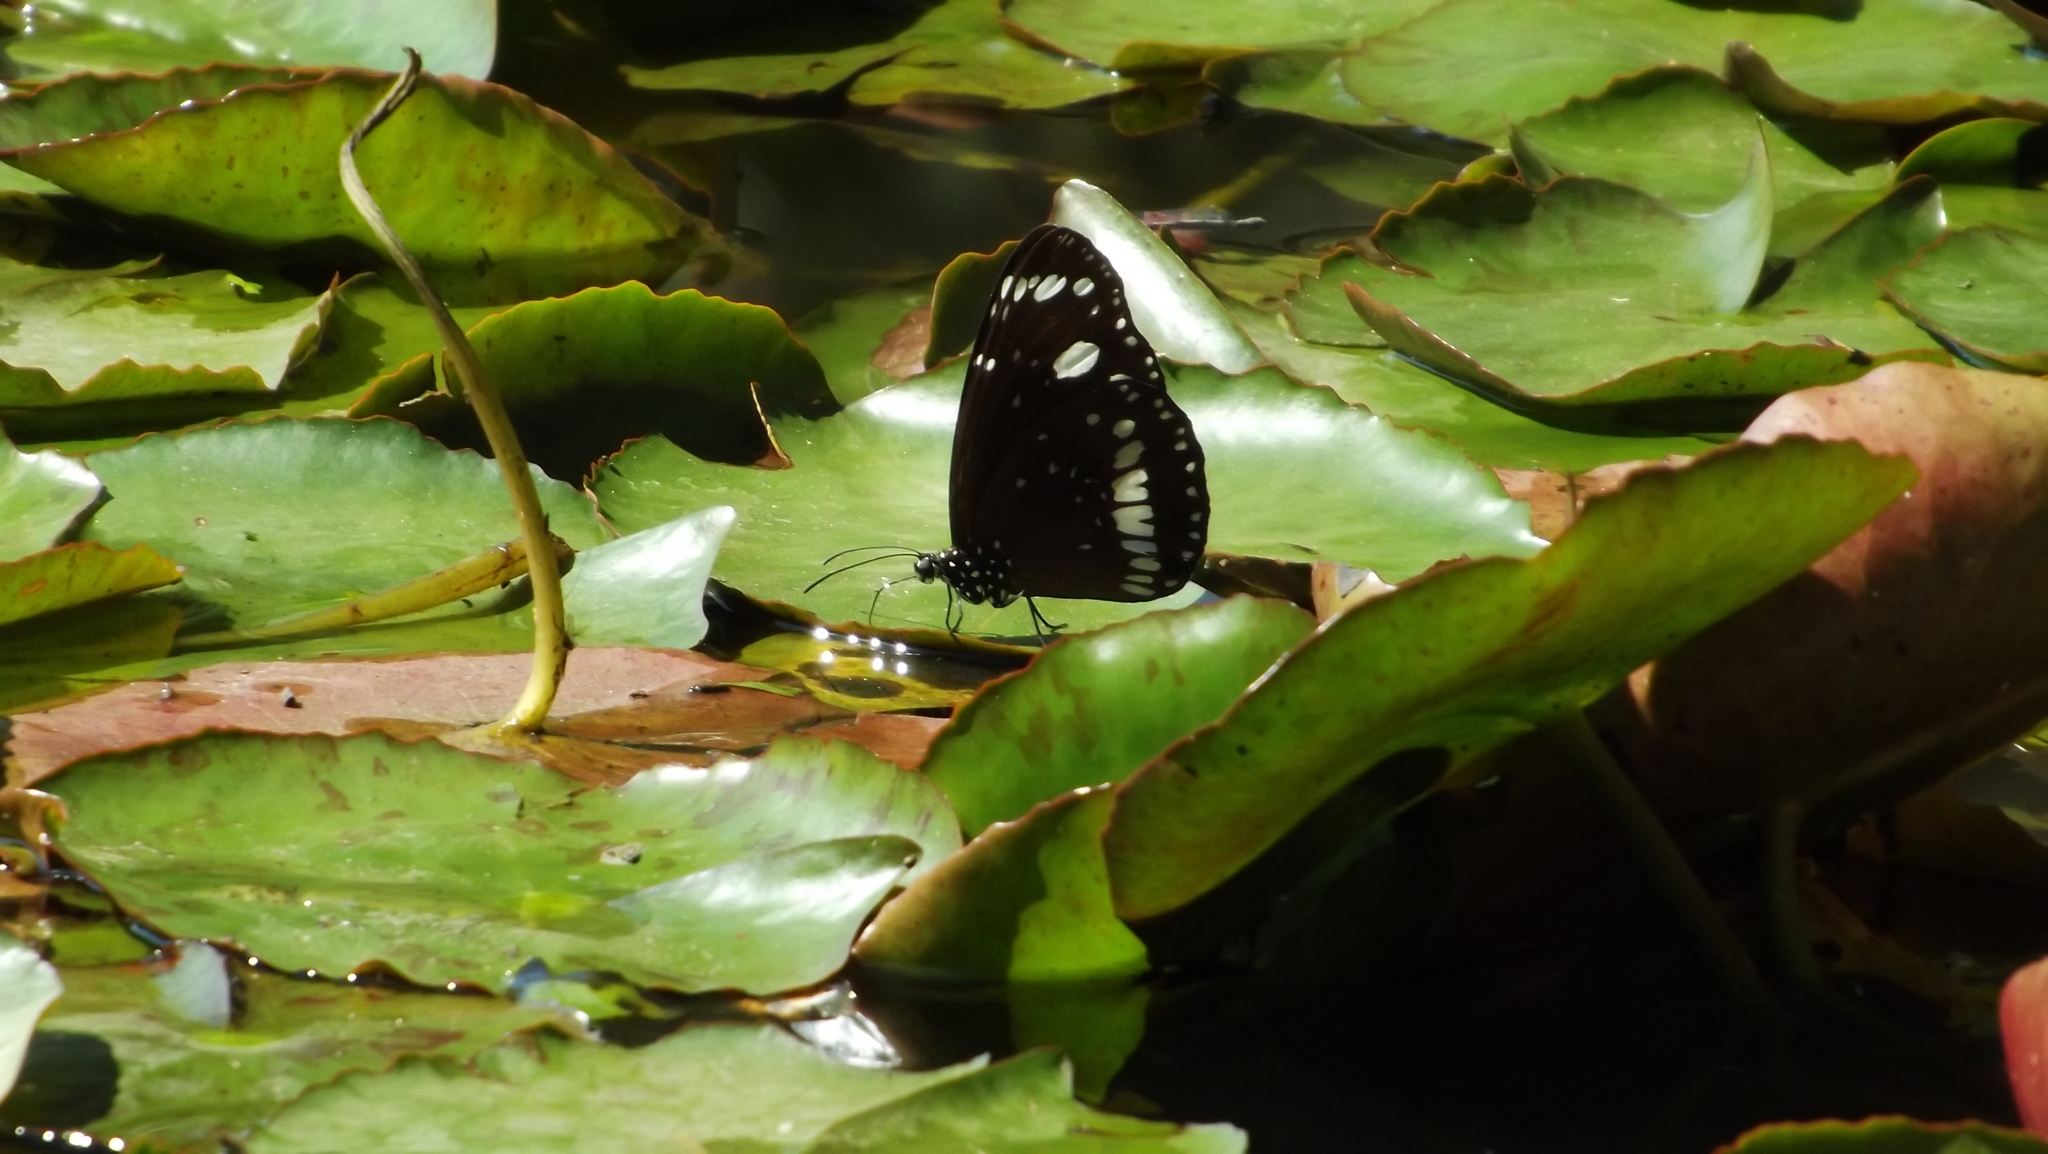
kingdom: Animalia
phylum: Arthropoda
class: Insecta
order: Lepidoptera
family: Nymphalidae
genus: Euploea
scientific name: Euploea core
